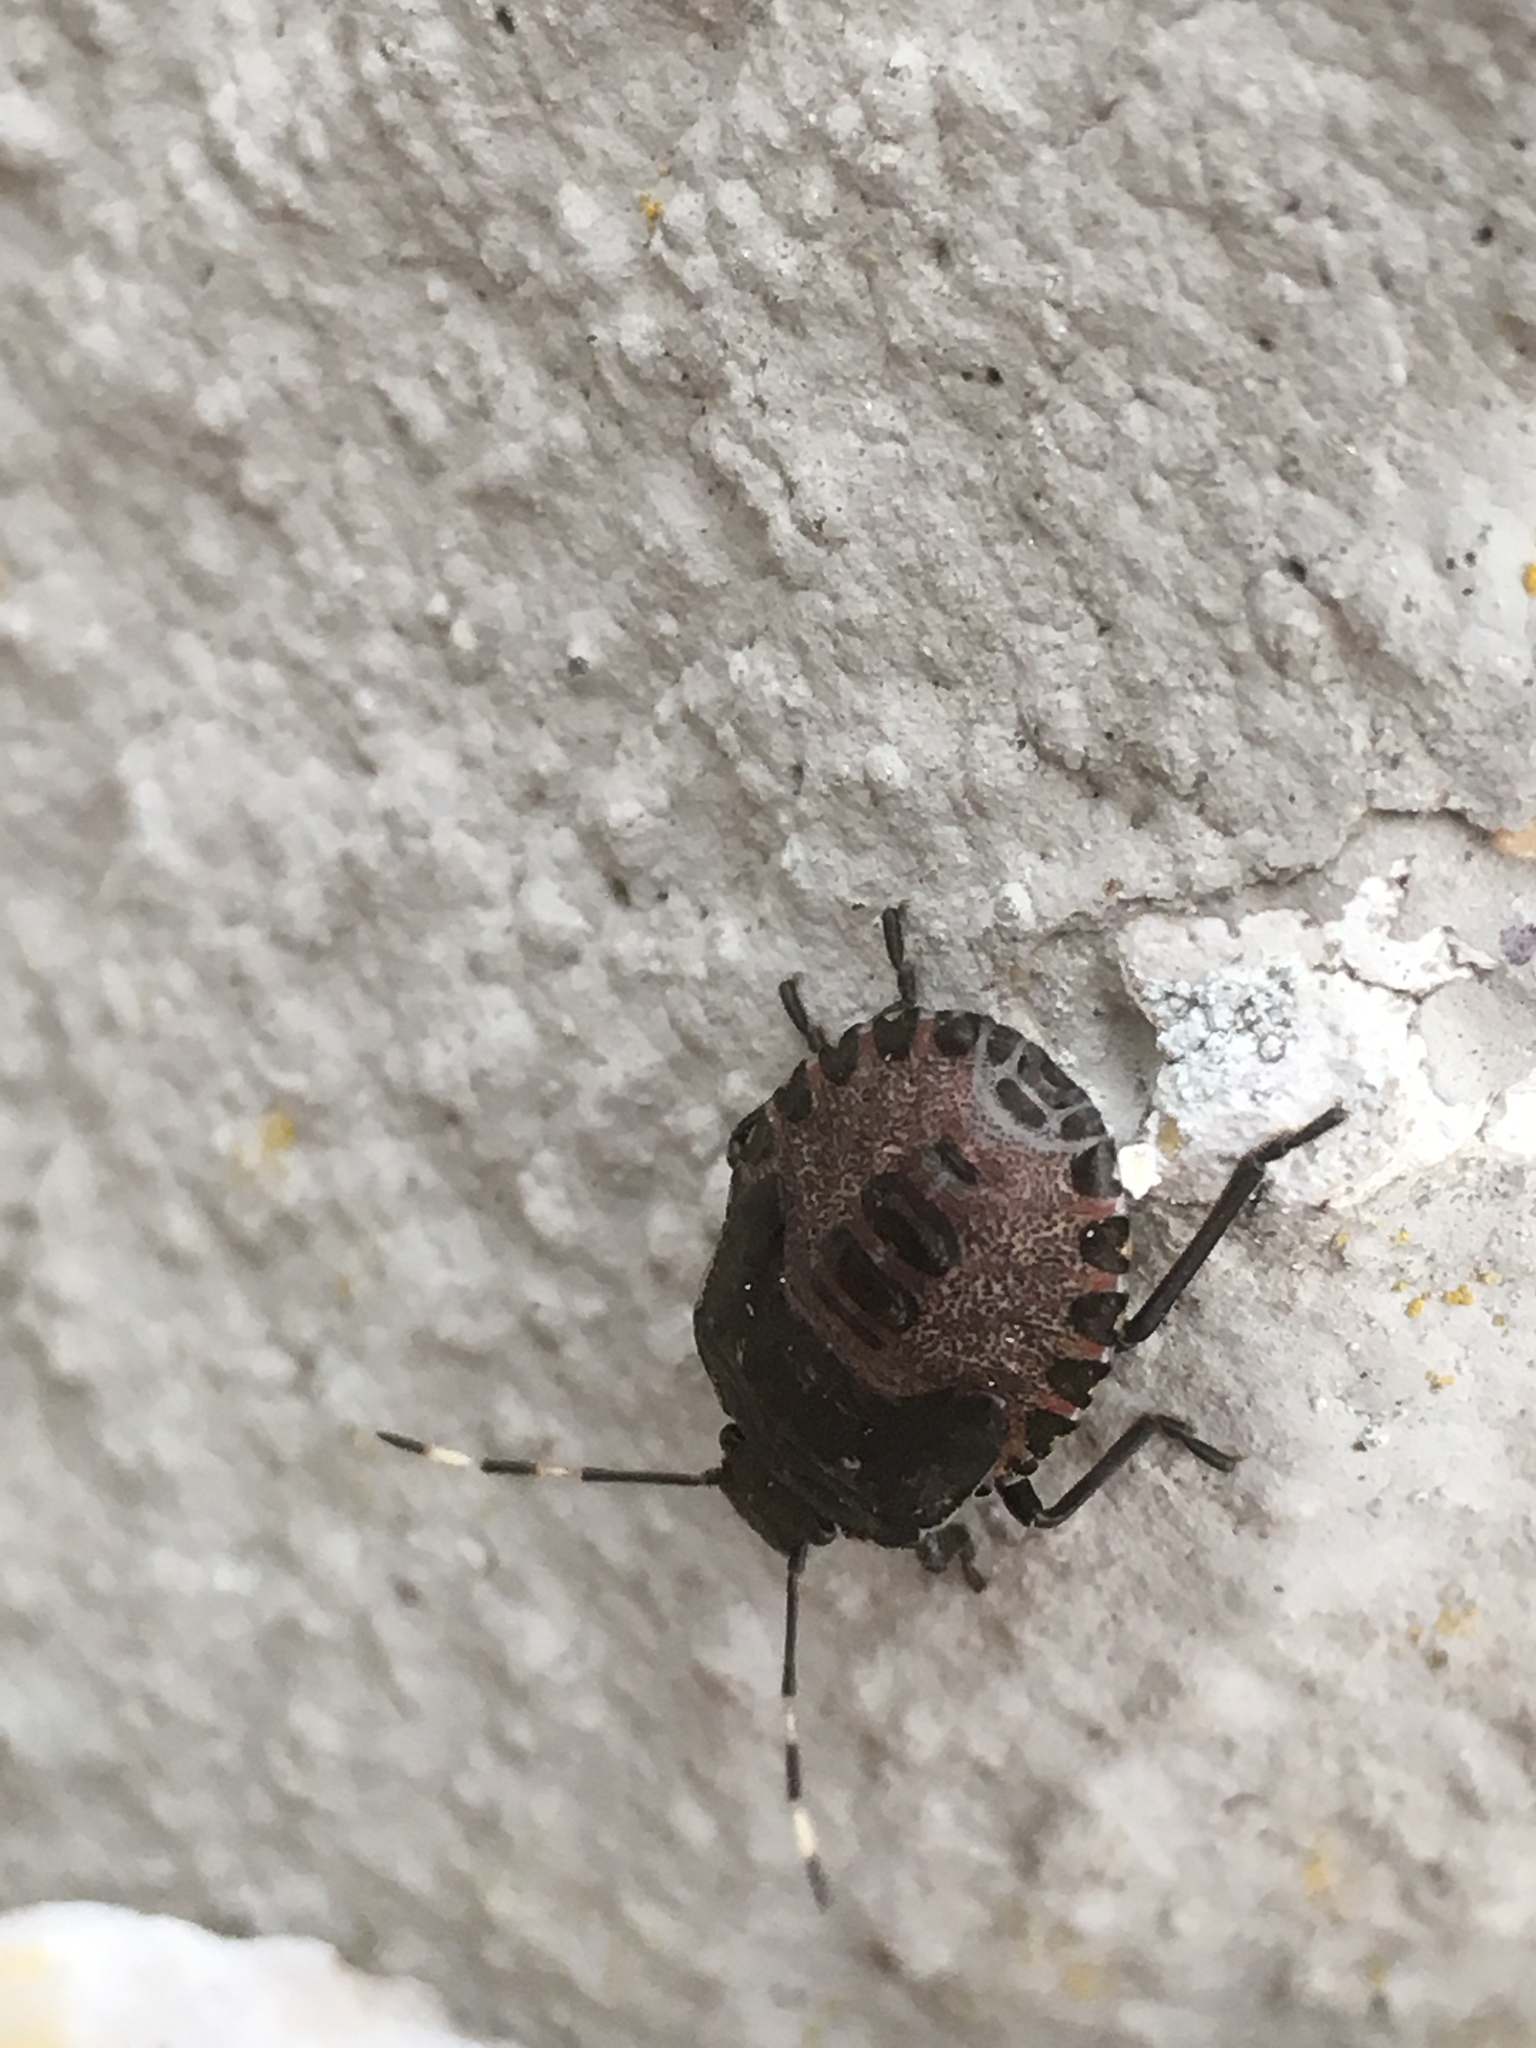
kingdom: Animalia
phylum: Arthropoda
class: Insecta
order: Hemiptera
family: Pentatomidae
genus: Rhaphigaster
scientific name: Rhaphigaster nebulosa
